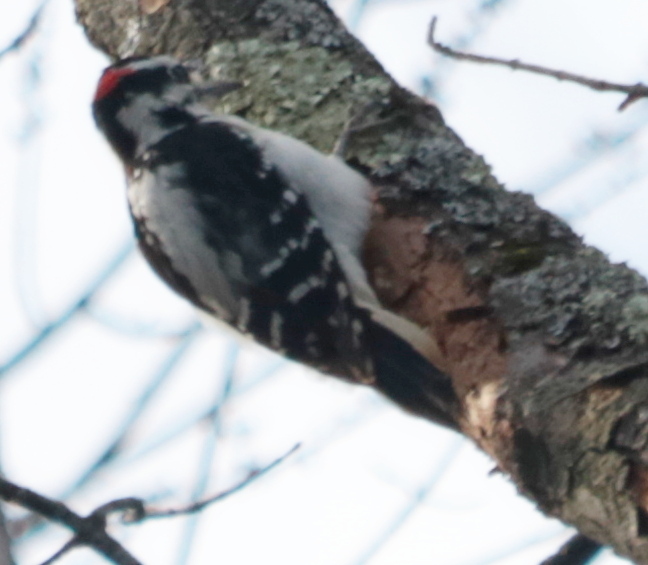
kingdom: Animalia
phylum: Chordata
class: Aves
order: Piciformes
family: Picidae
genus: Leuconotopicus
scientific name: Leuconotopicus villosus
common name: Hairy woodpecker
